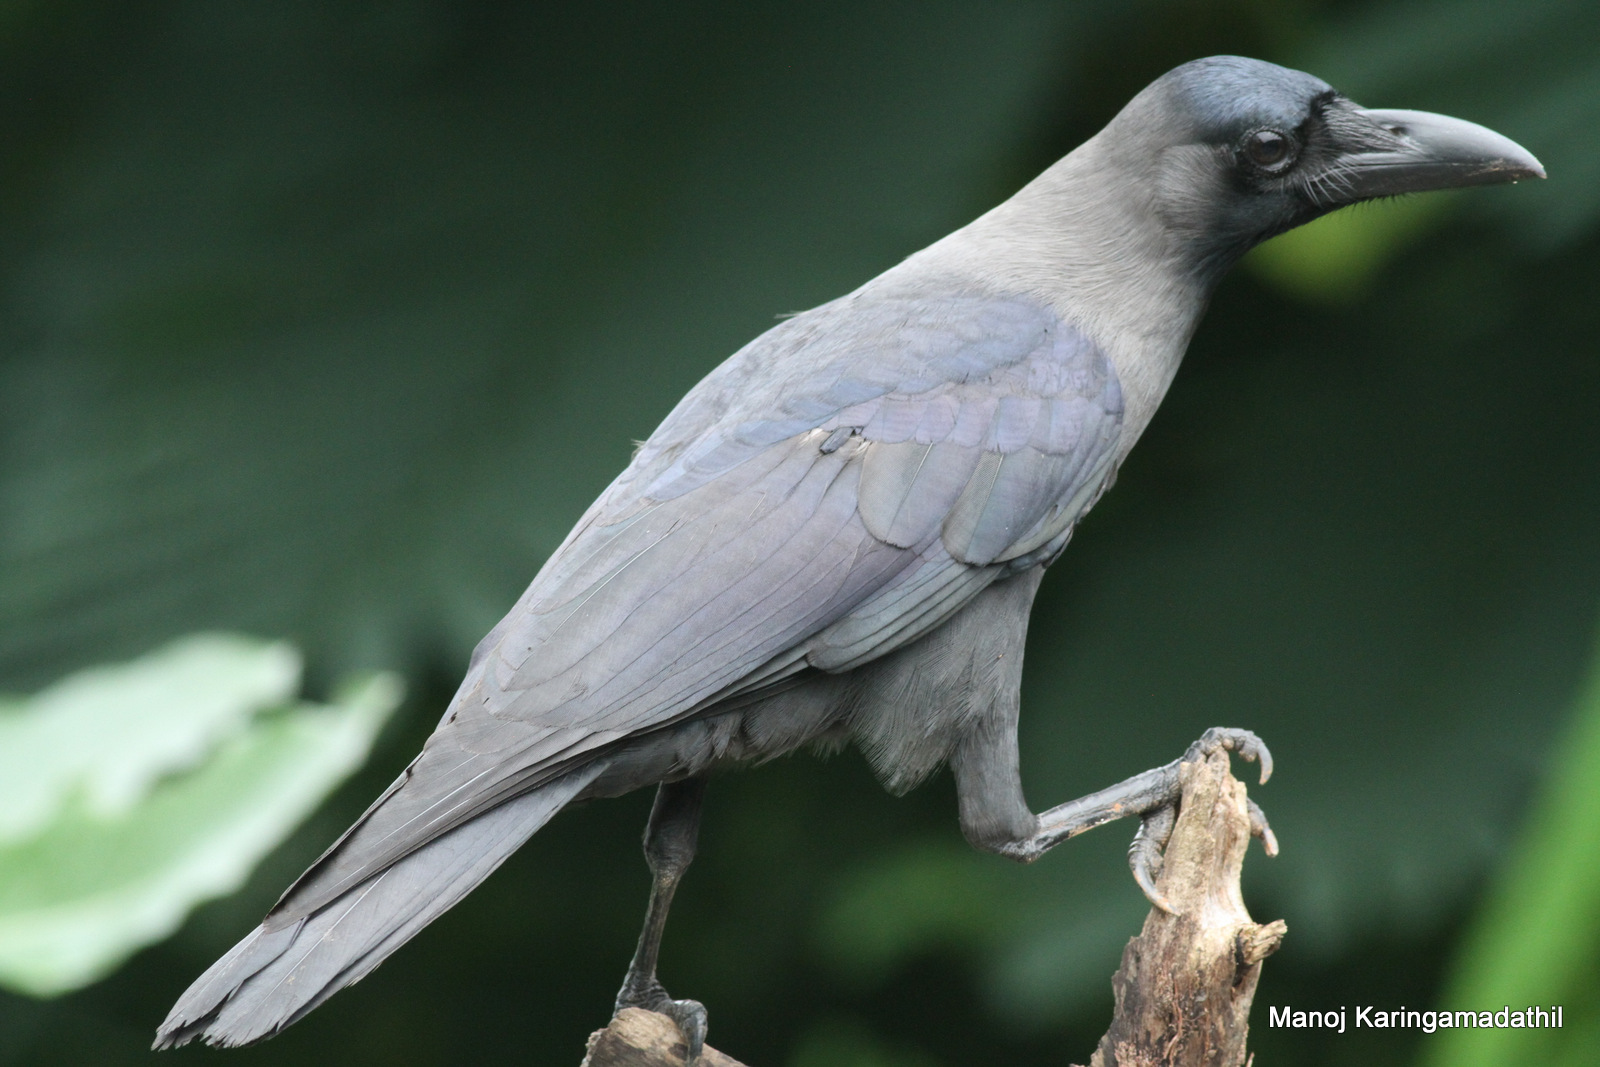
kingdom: Animalia
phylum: Chordata
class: Aves
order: Passeriformes
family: Corvidae
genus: Corvus
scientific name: Corvus splendens
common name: House crow
